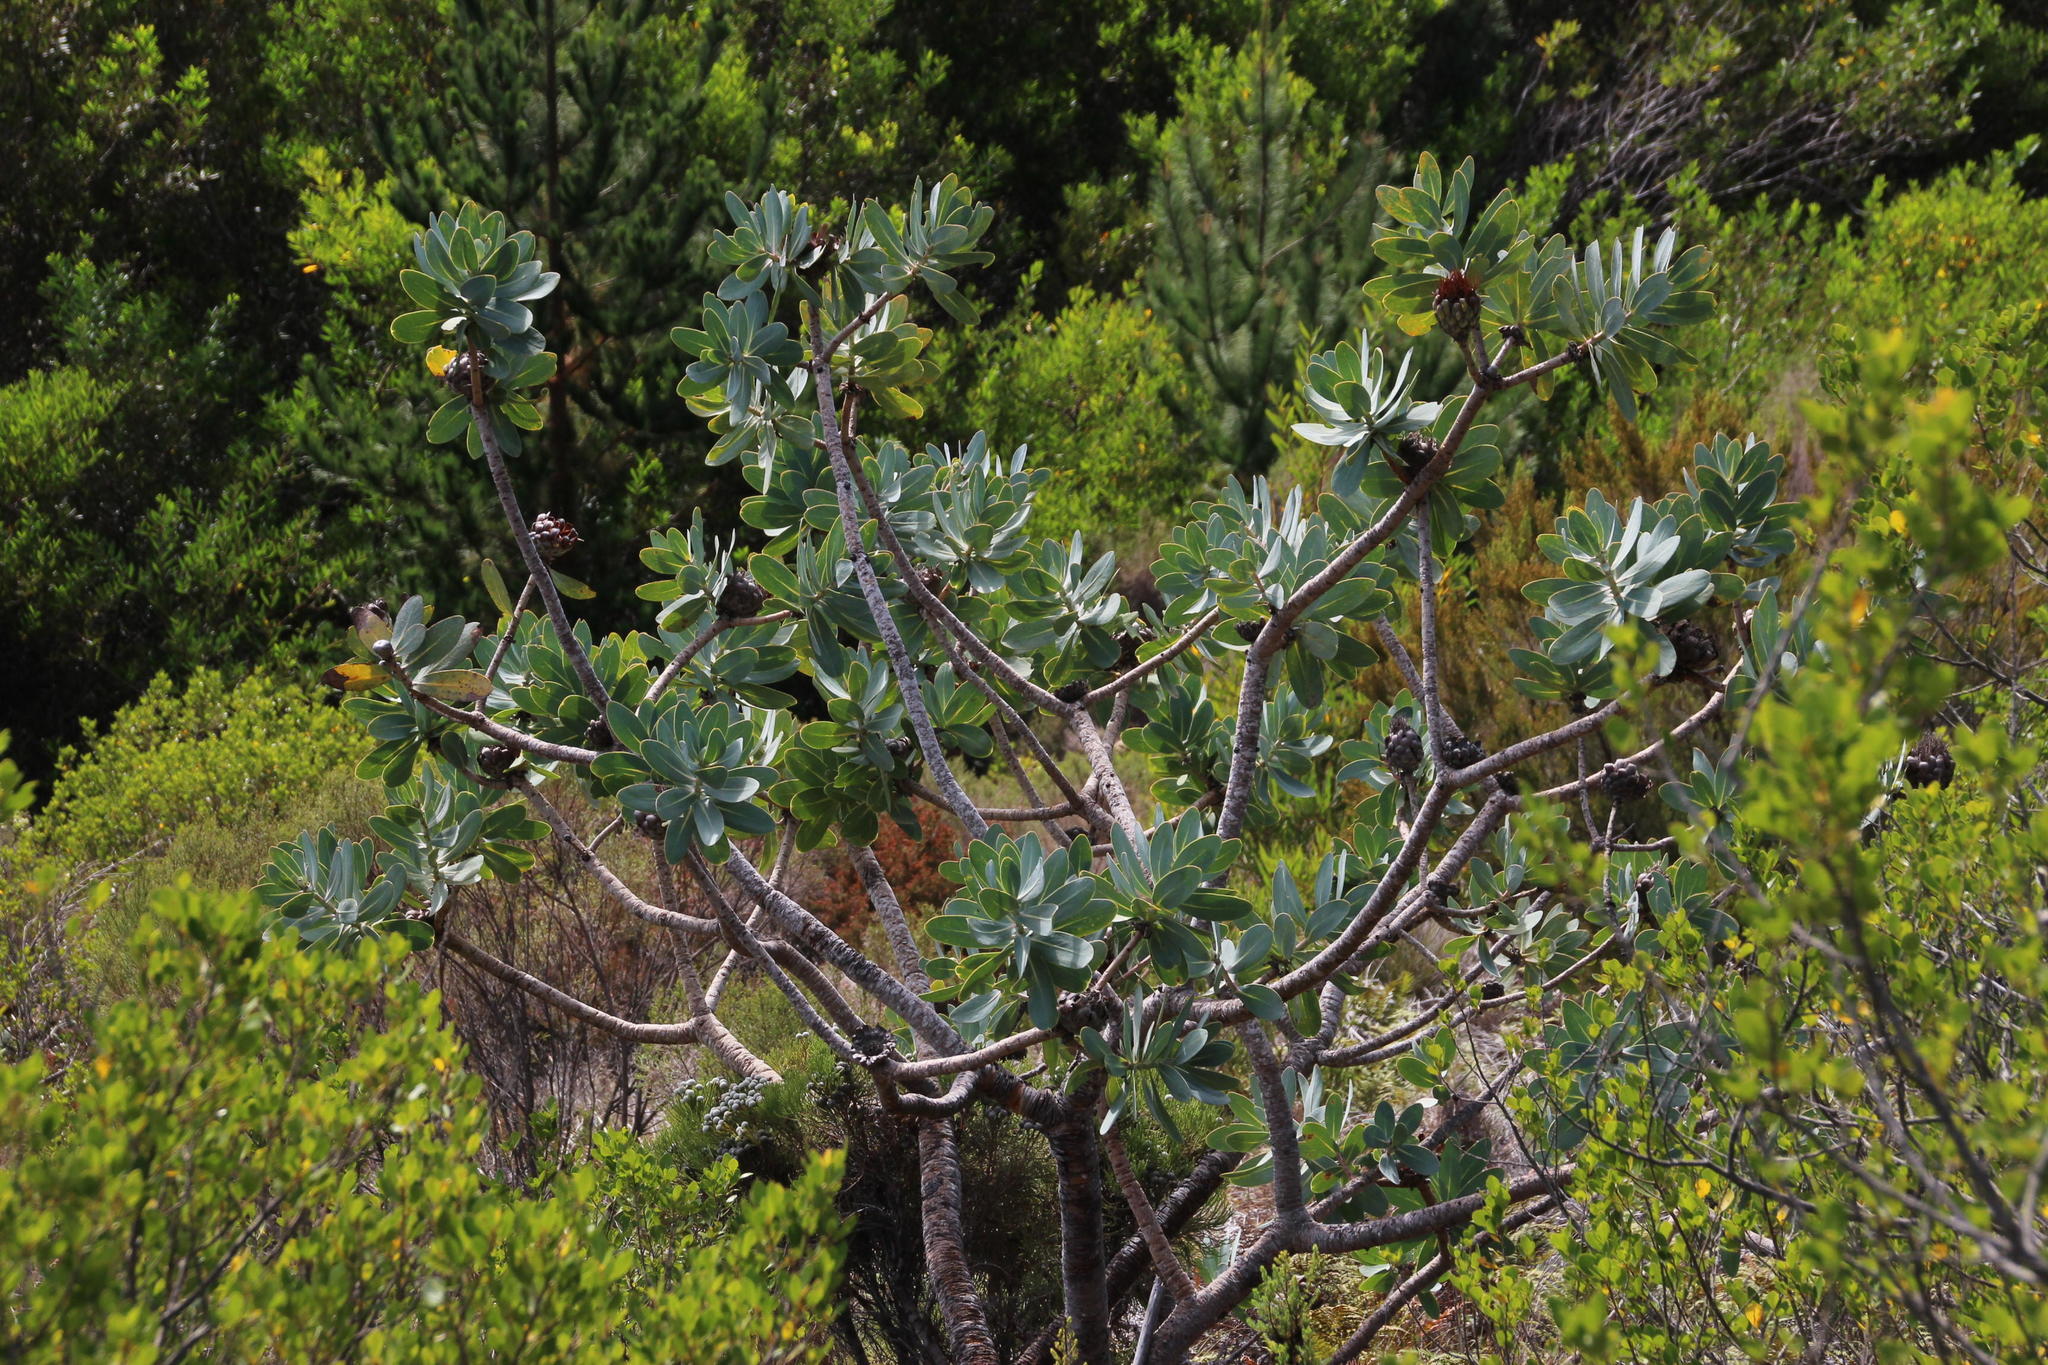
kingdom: Plantae
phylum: Tracheophyta
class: Magnoliopsida
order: Proteales
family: Proteaceae
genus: Protea
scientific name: Protea nitida
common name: Tree protea
